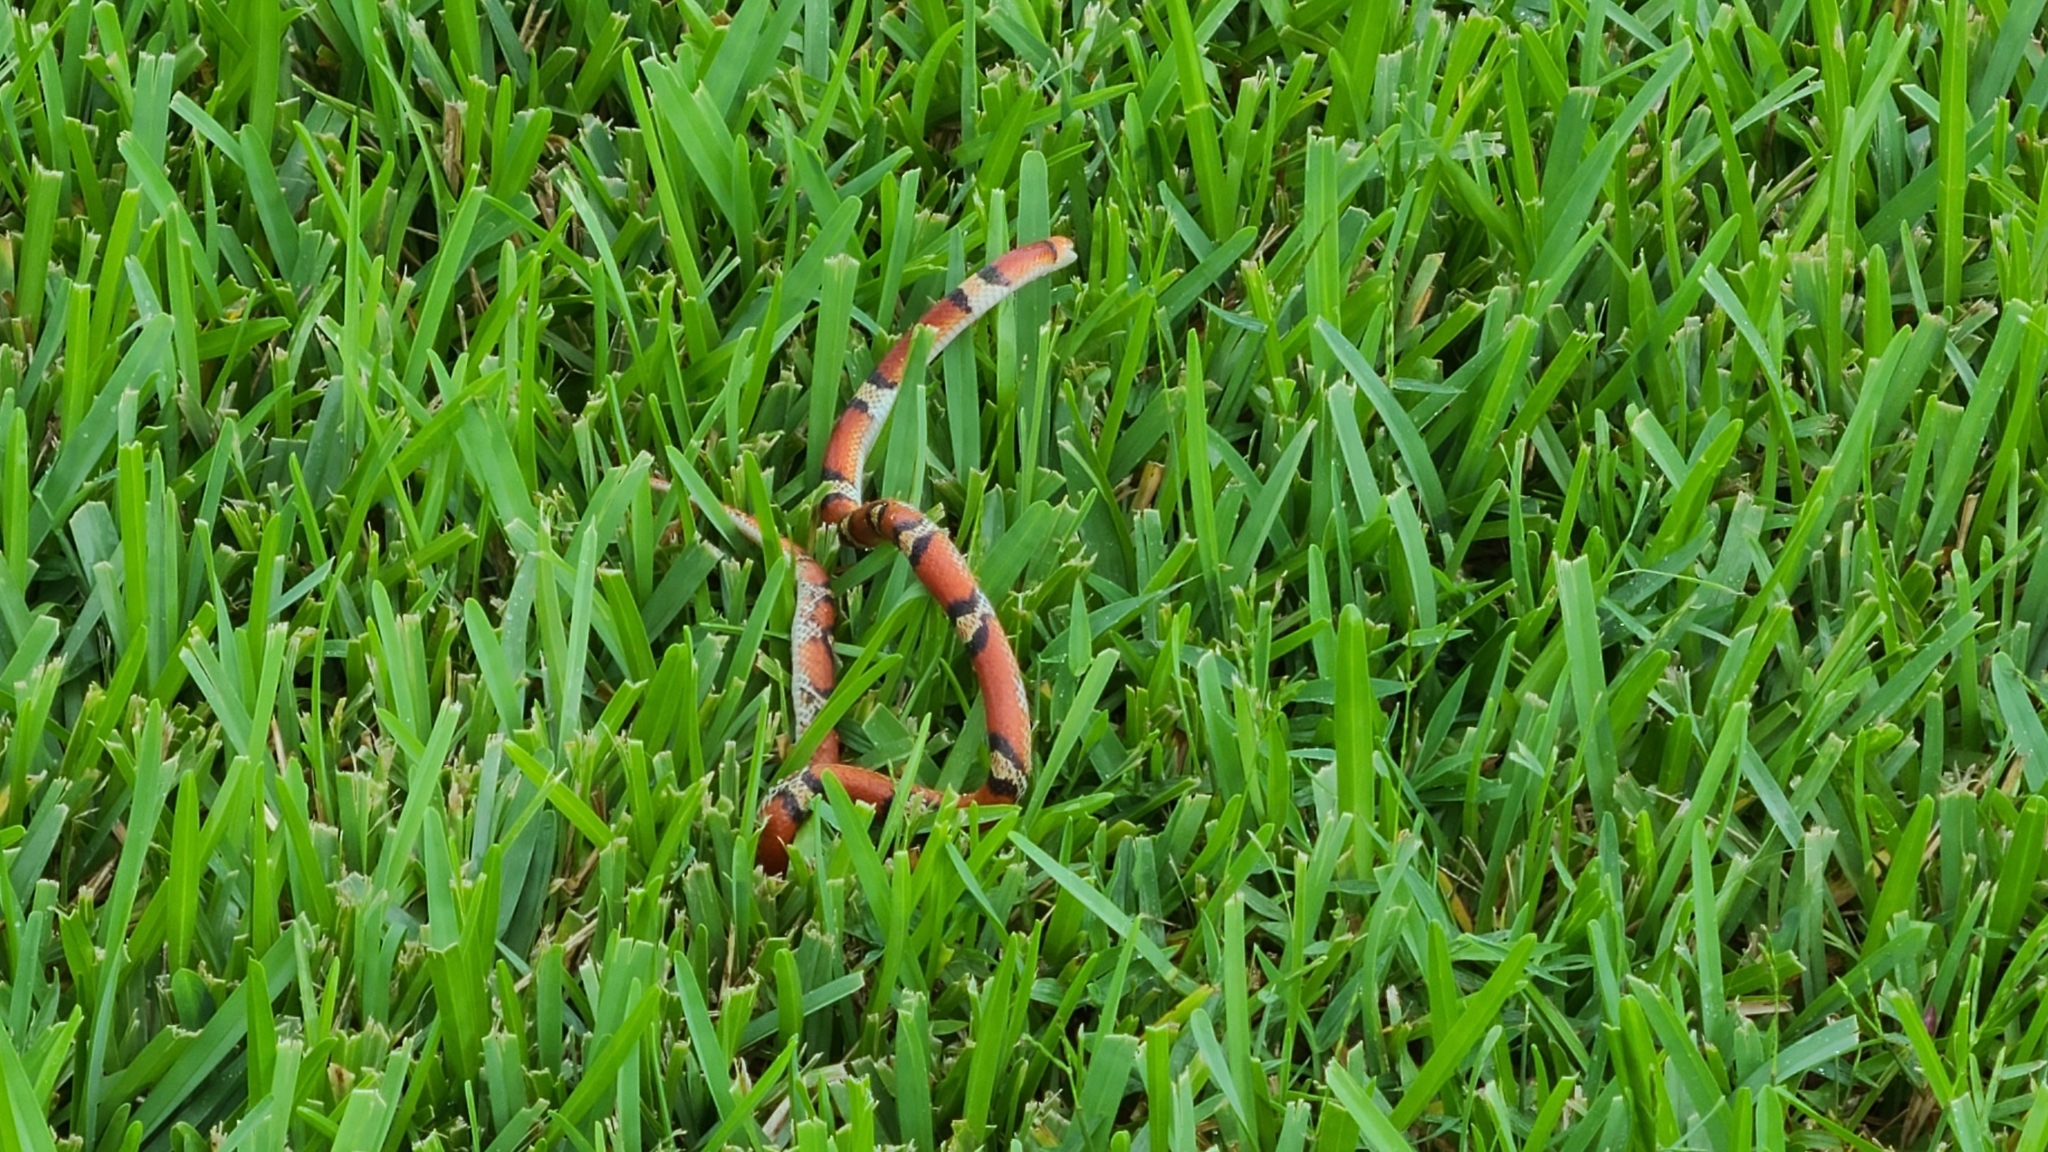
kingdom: Animalia
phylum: Chordata
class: Squamata
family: Colubridae
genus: Cemophora
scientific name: Cemophora coccinea
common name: Scarlet snake
